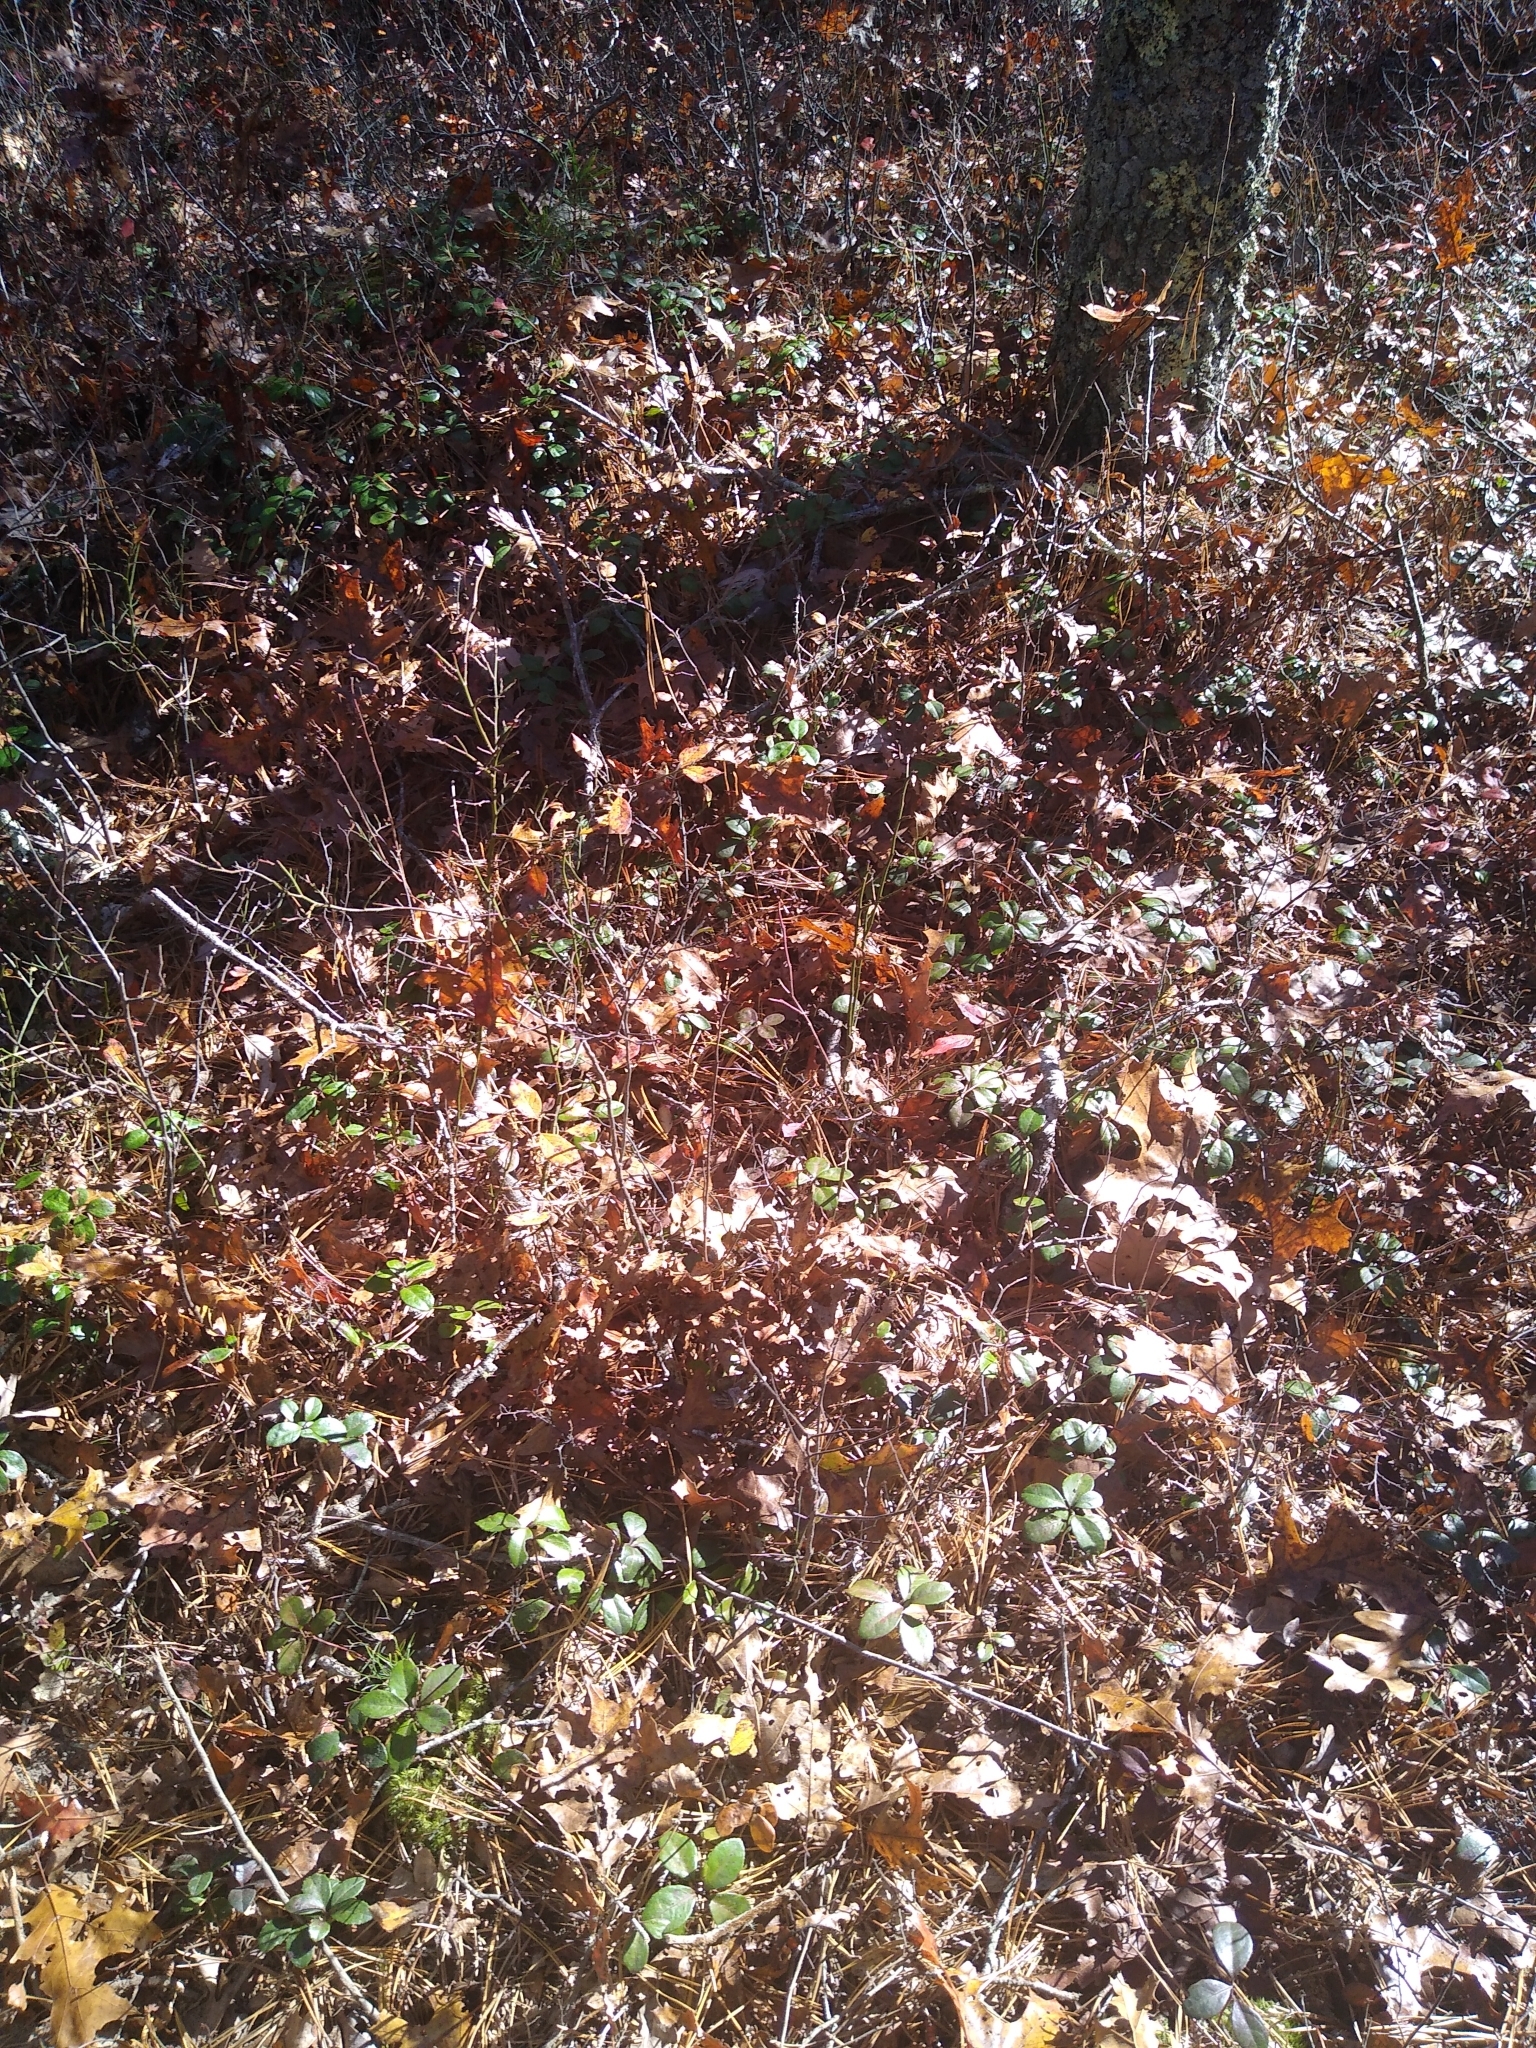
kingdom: Animalia
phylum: Chordata
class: Squamata
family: Colubridae
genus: Thamnophis
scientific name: Thamnophis saurita
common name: Eastern ribbonsnake
